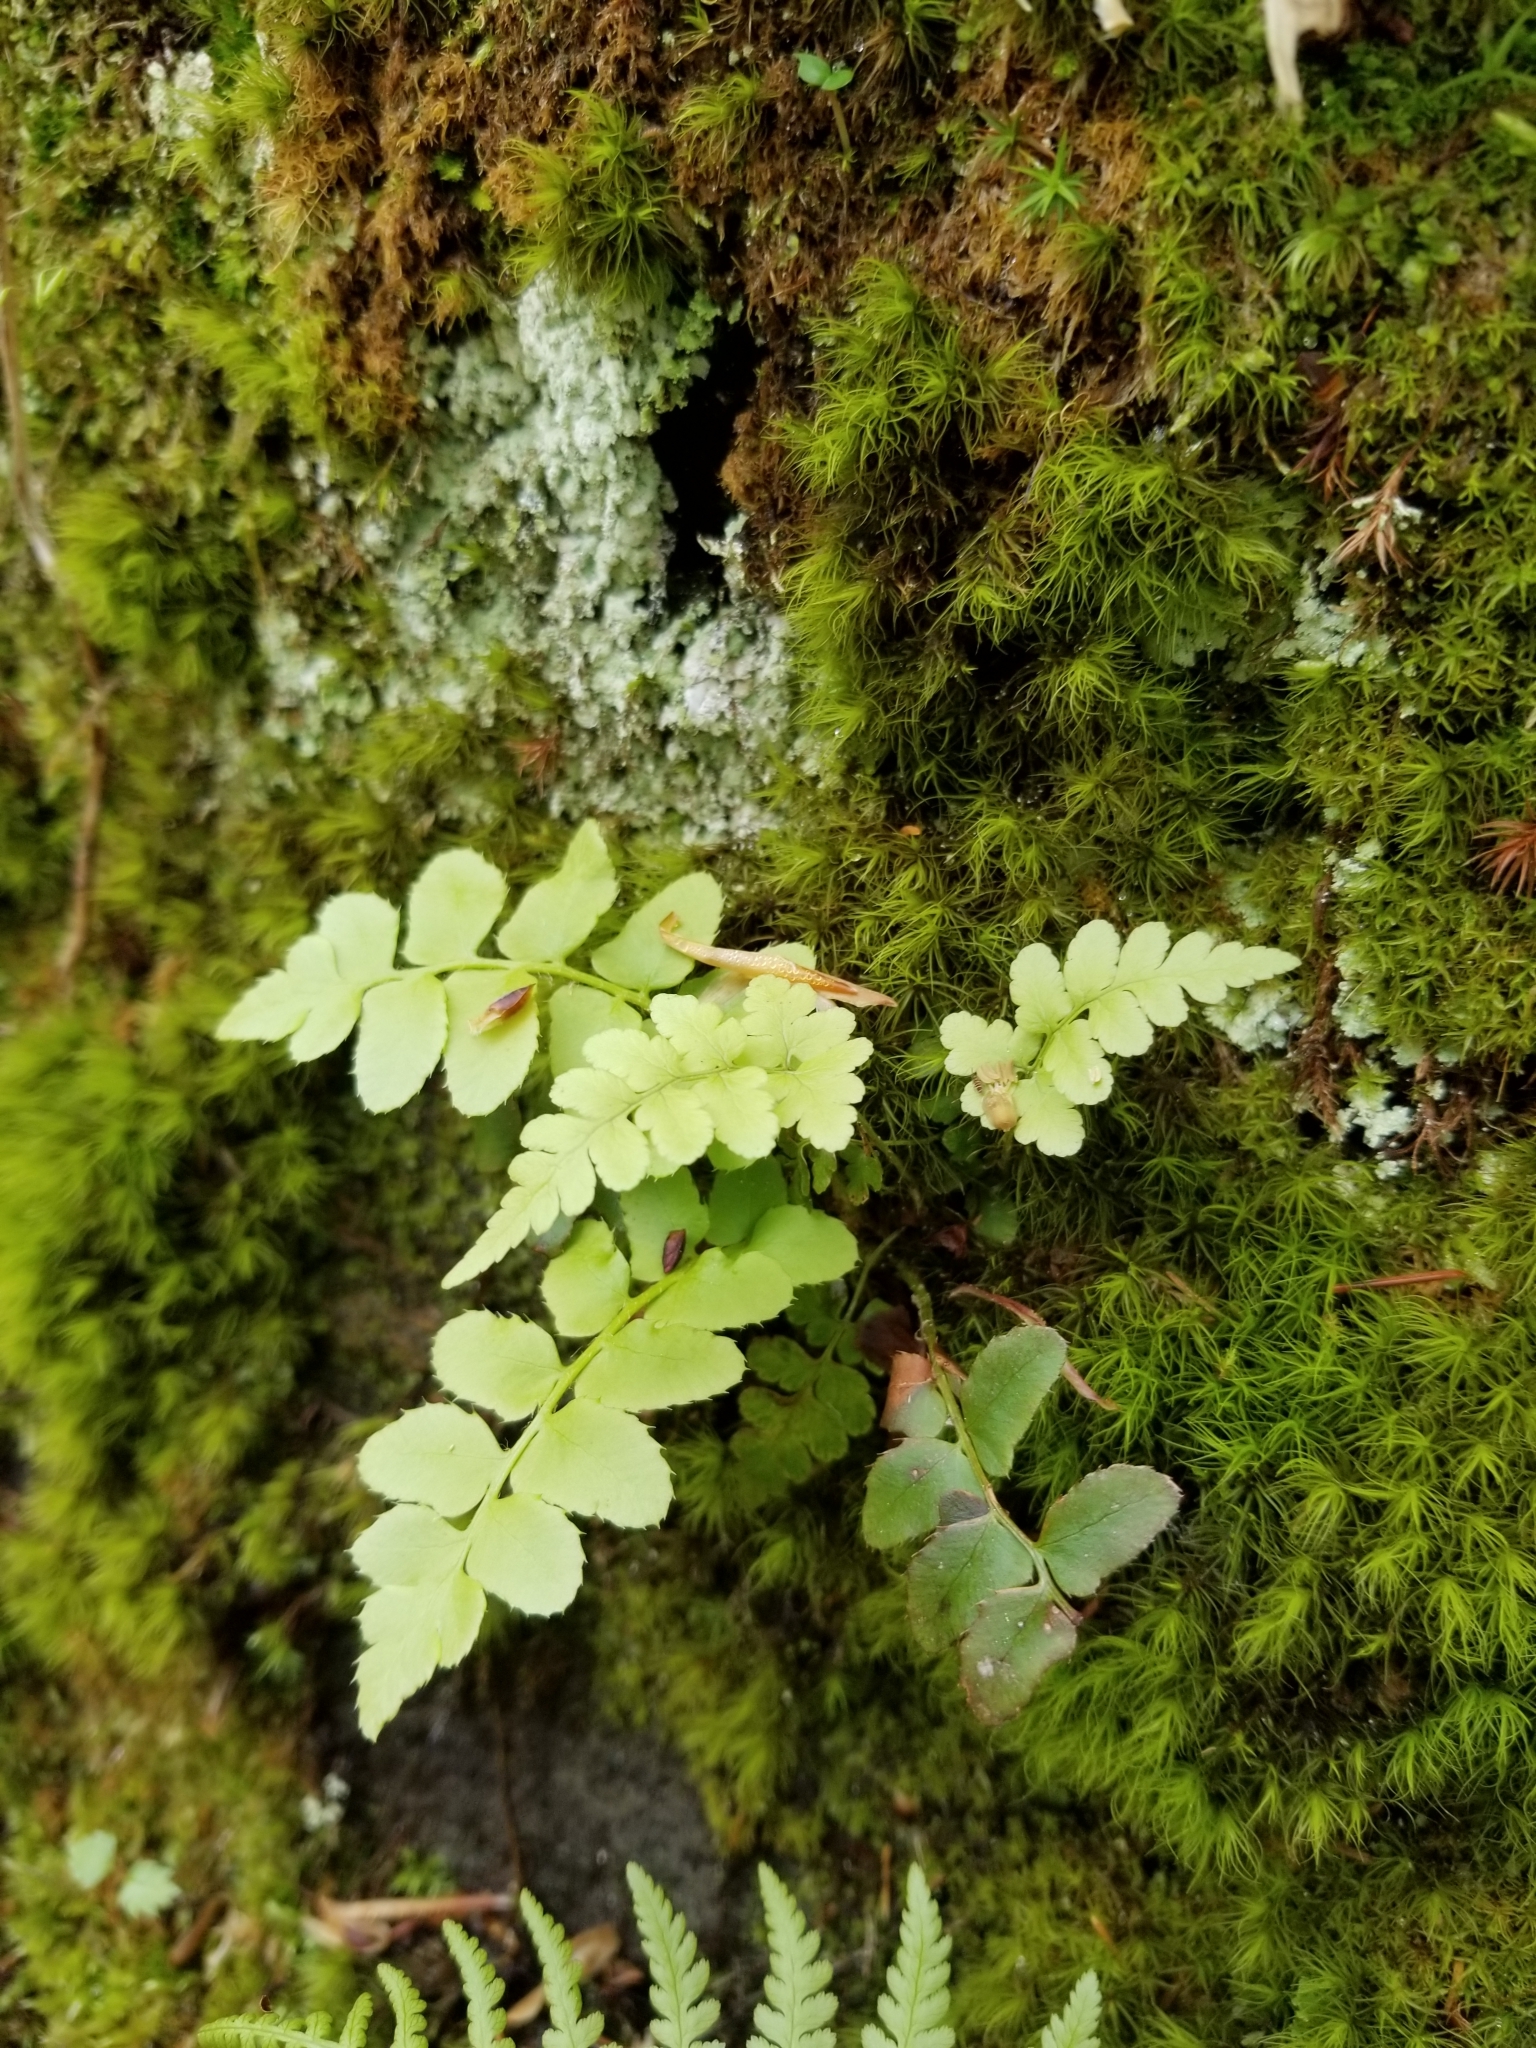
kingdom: Plantae
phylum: Tracheophyta
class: Polypodiopsida
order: Polypodiales
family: Dryopteridaceae
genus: Polystichum
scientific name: Polystichum acrostichoides
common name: Christmas fern
